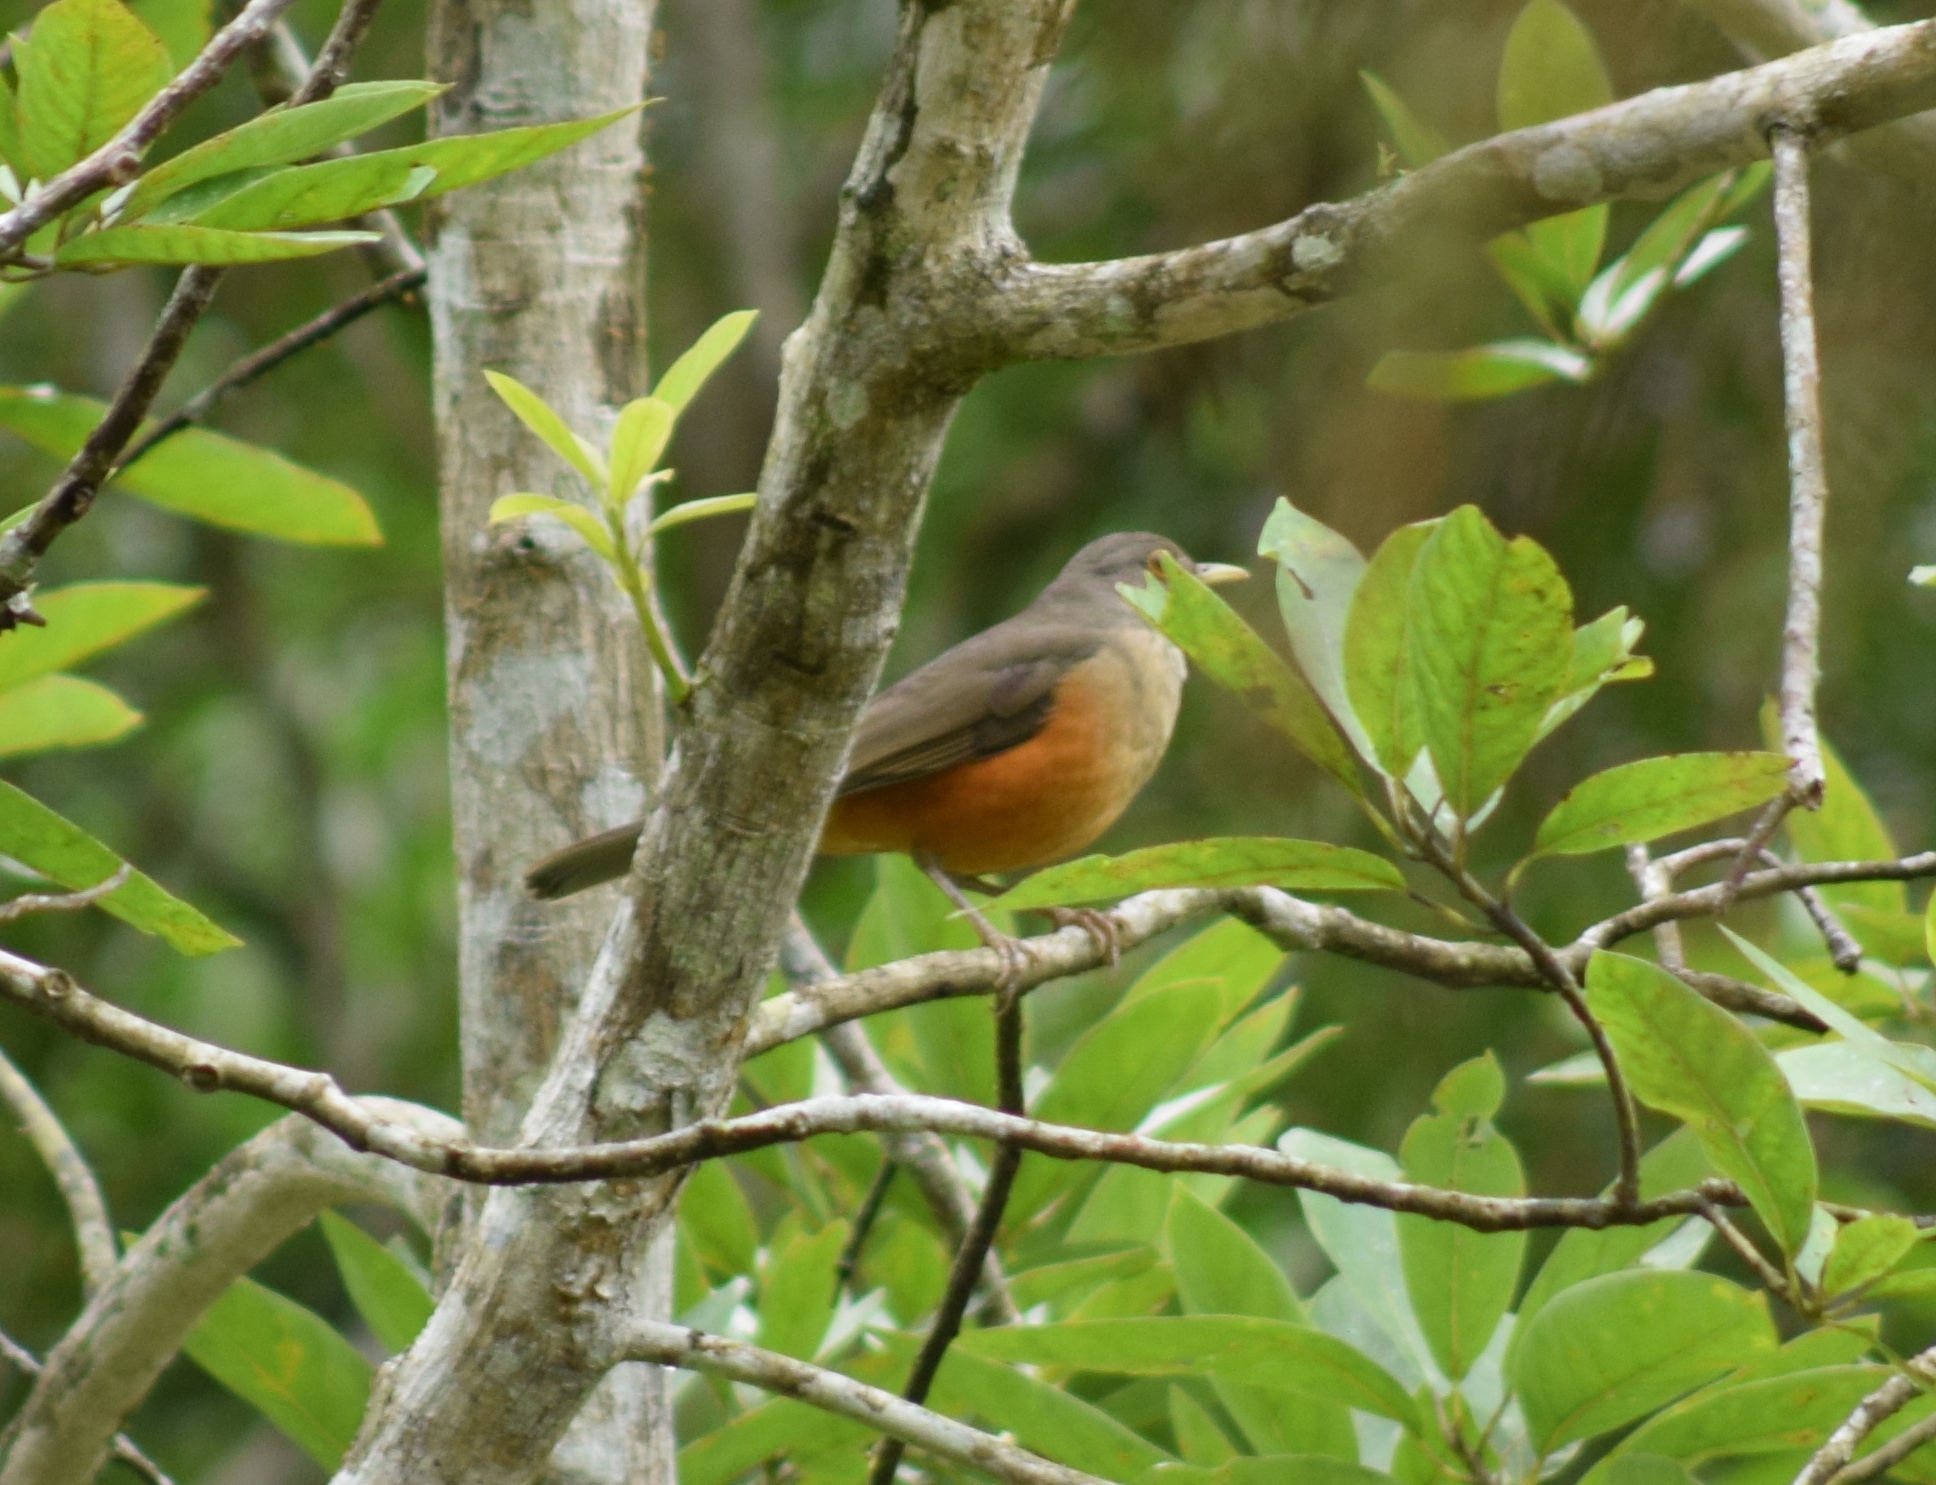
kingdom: Animalia
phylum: Chordata
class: Aves
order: Passeriformes
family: Turdidae
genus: Turdus
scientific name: Turdus rufiventris
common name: Rufous-bellied thrush
